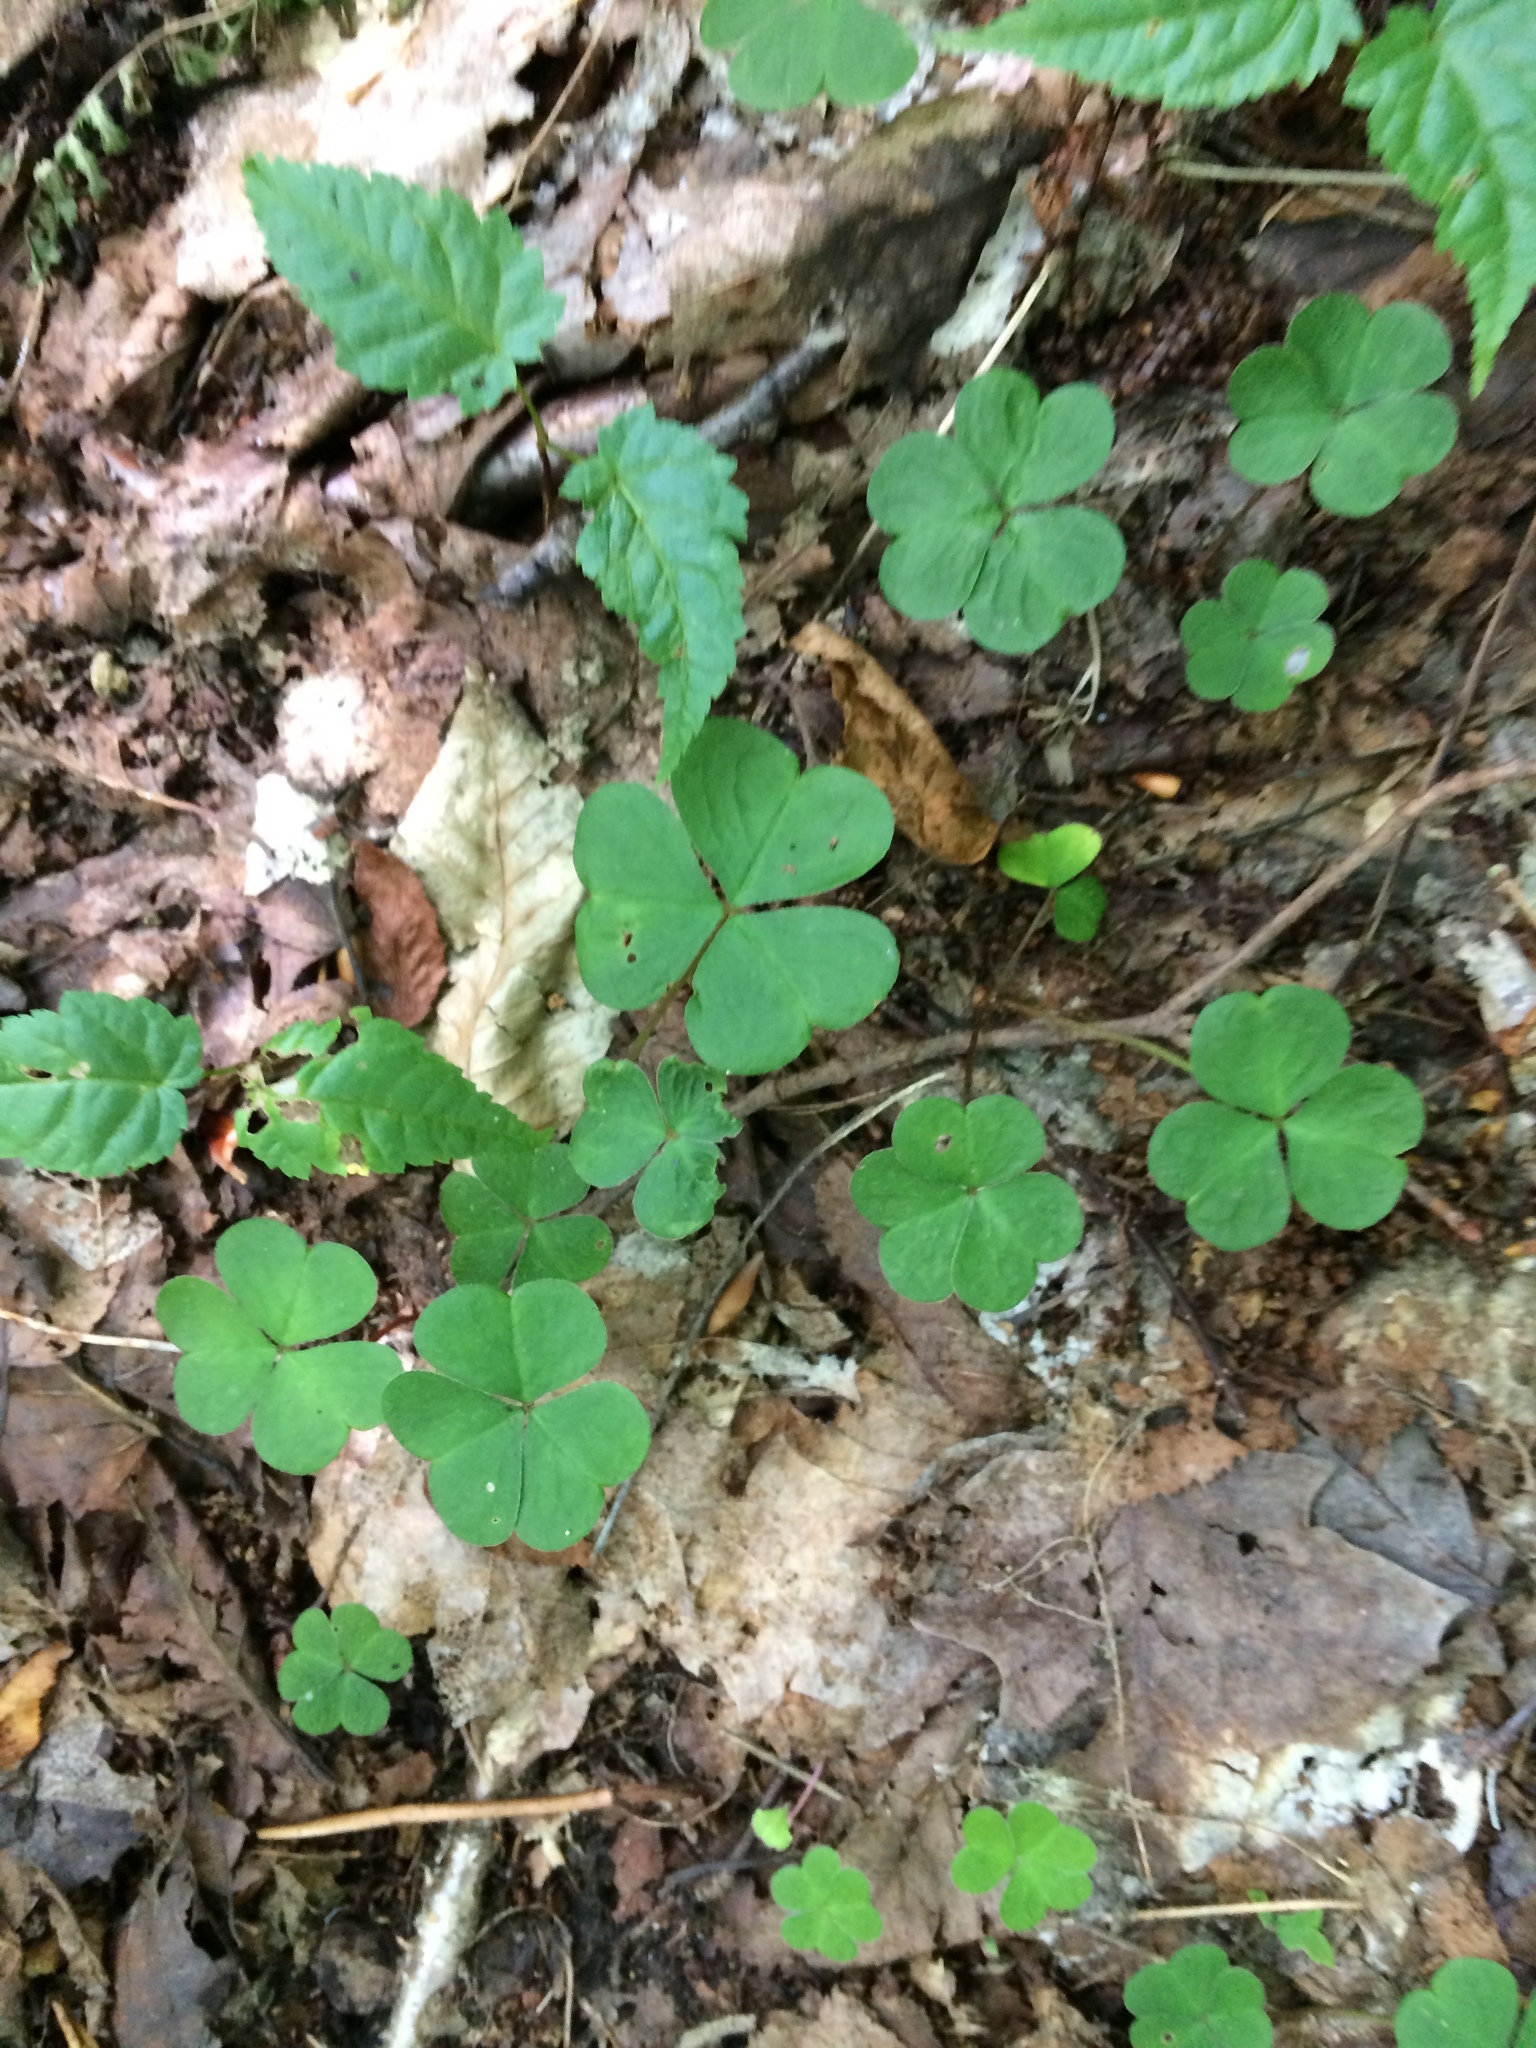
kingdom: Plantae
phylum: Tracheophyta
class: Magnoliopsida
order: Oxalidales
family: Oxalidaceae
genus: Oxalis
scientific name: Oxalis montana
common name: American wood-sorrel
